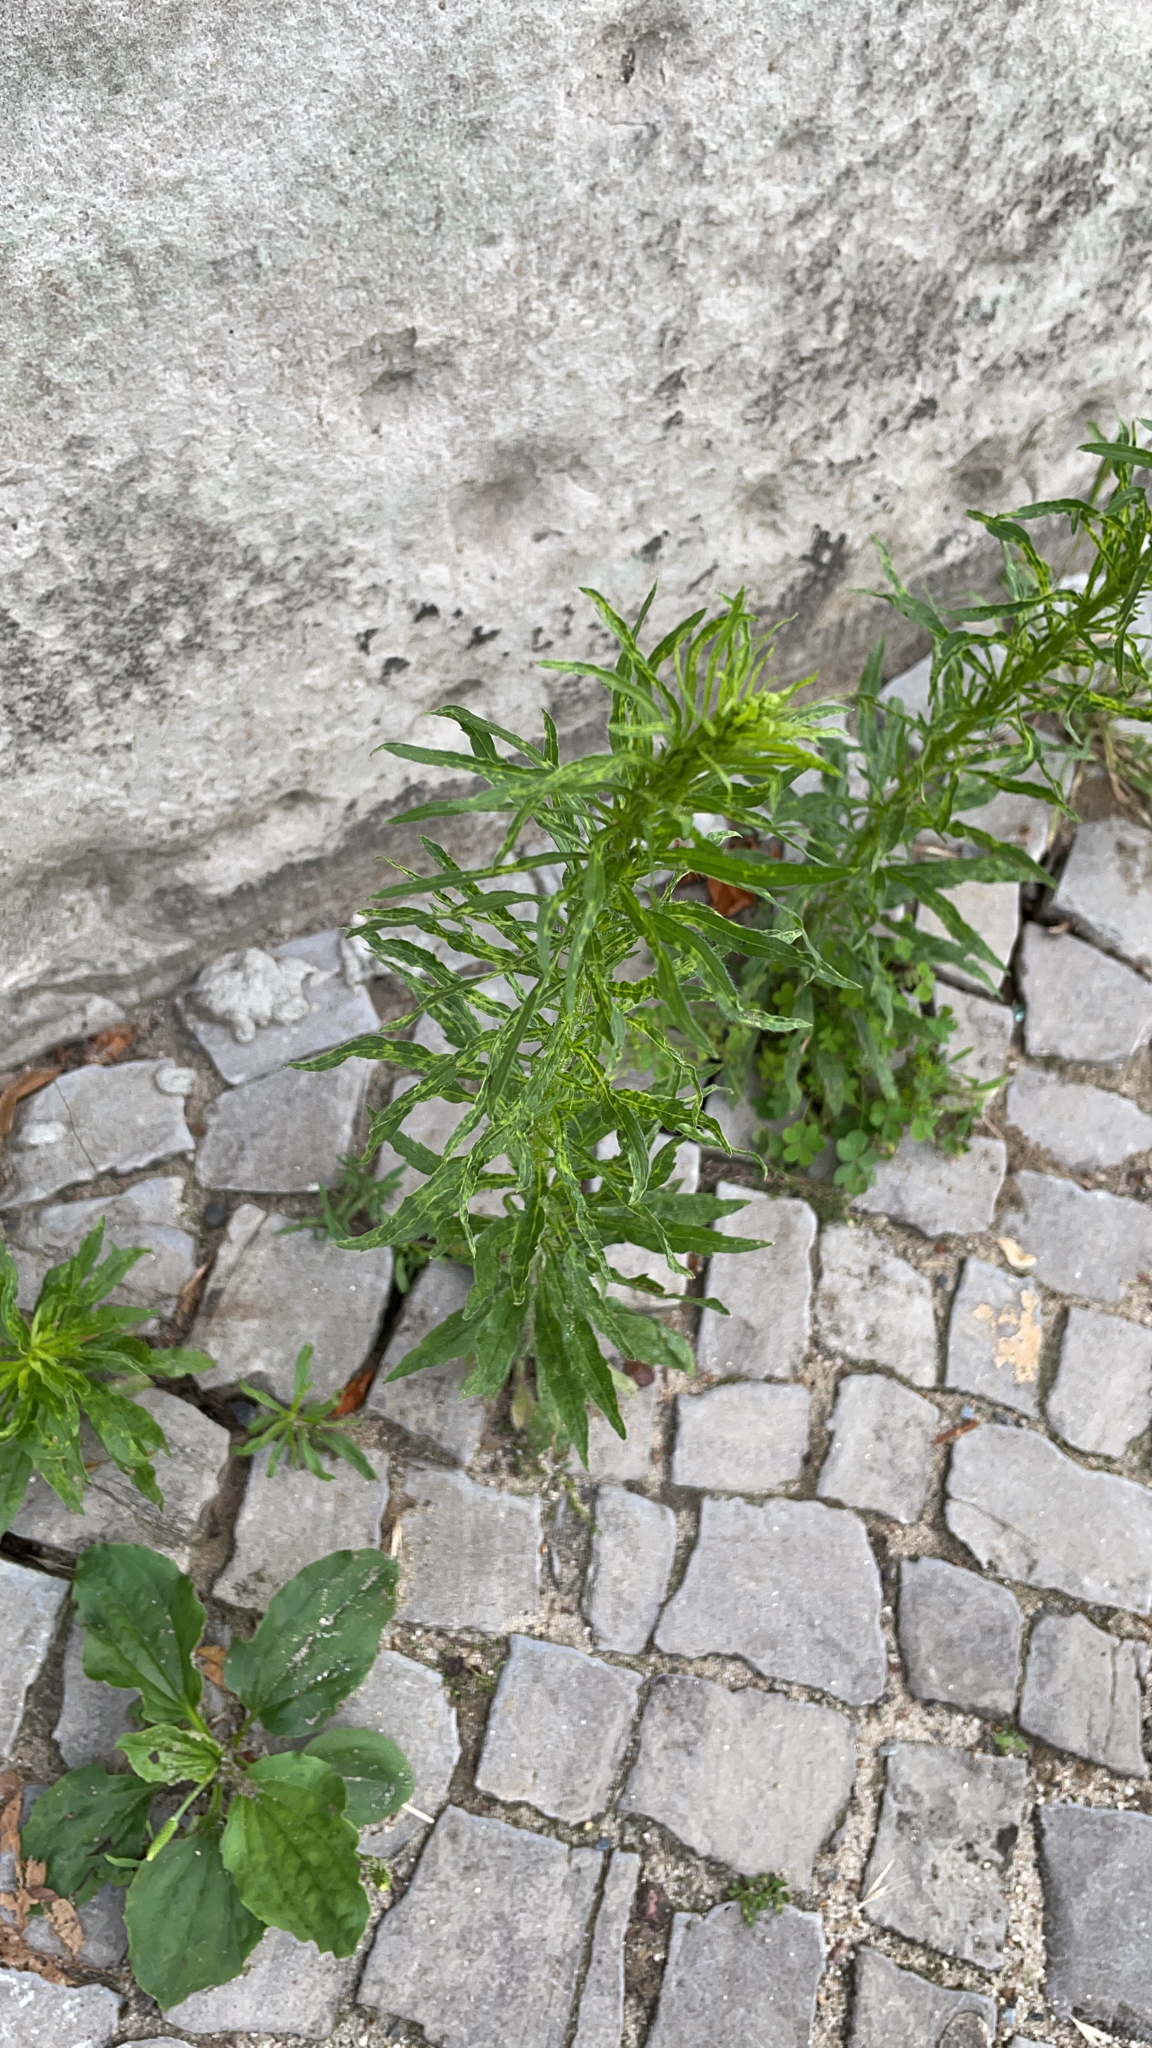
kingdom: Plantae
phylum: Tracheophyta
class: Magnoliopsida
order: Asterales
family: Asteraceae
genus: Erigeron
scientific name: Erigeron canadensis
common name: Canadian fleabane
